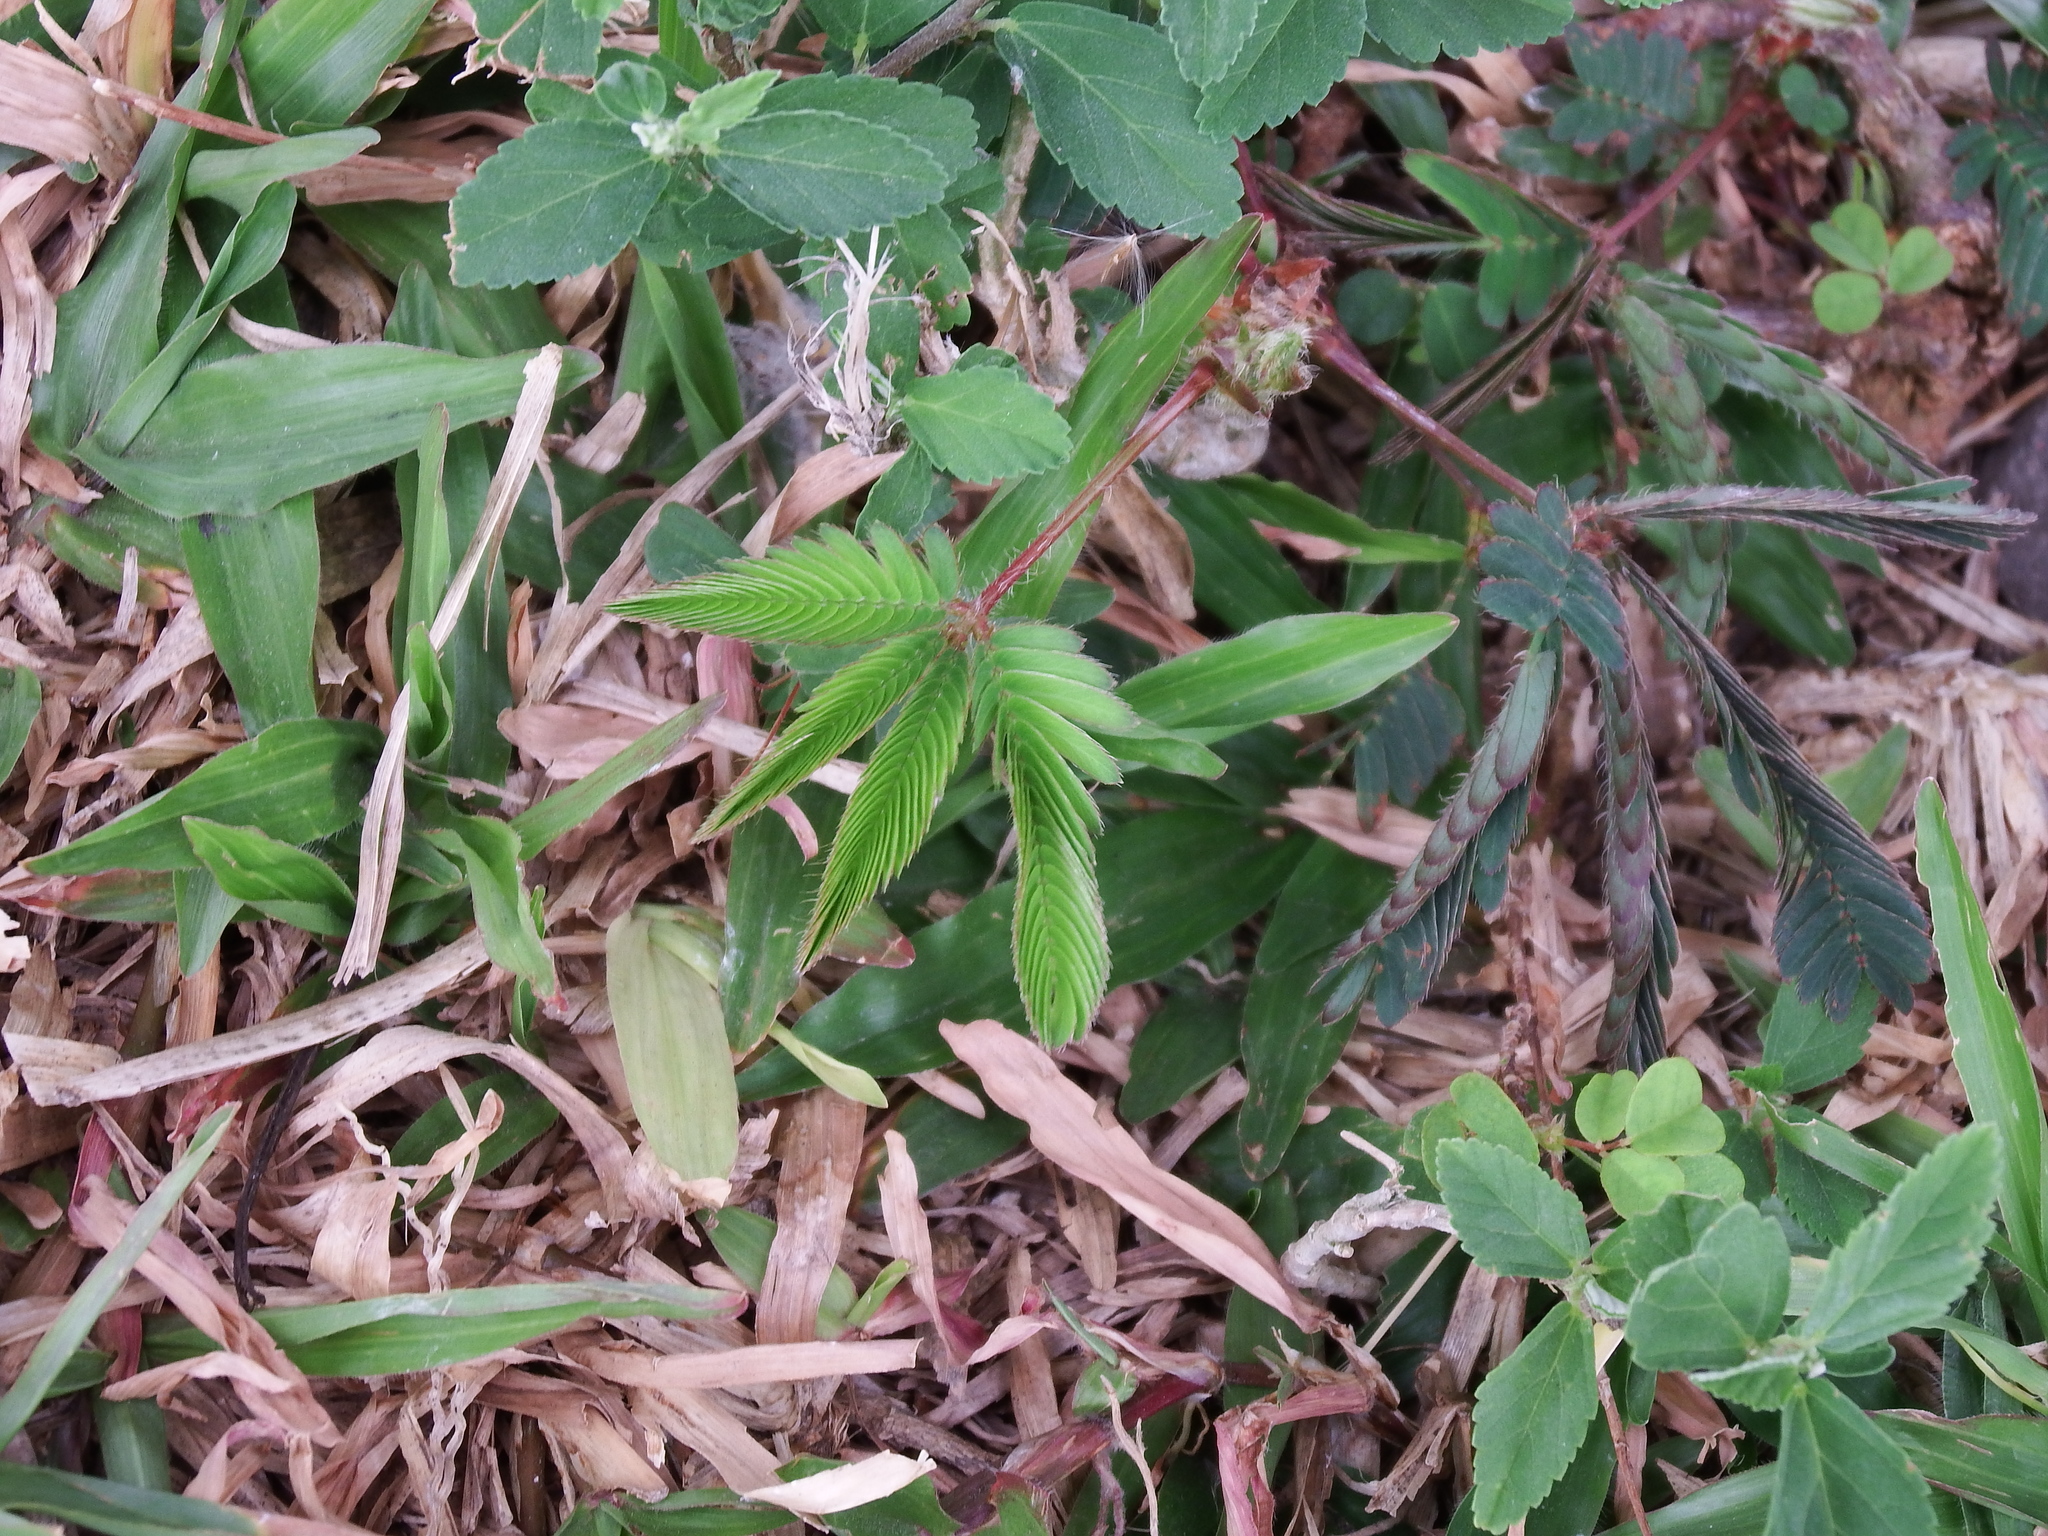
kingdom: Plantae
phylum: Tracheophyta
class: Magnoliopsida
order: Fabales
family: Fabaceae
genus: Mimosa
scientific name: Mimosa pudica
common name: Sensitive plant
